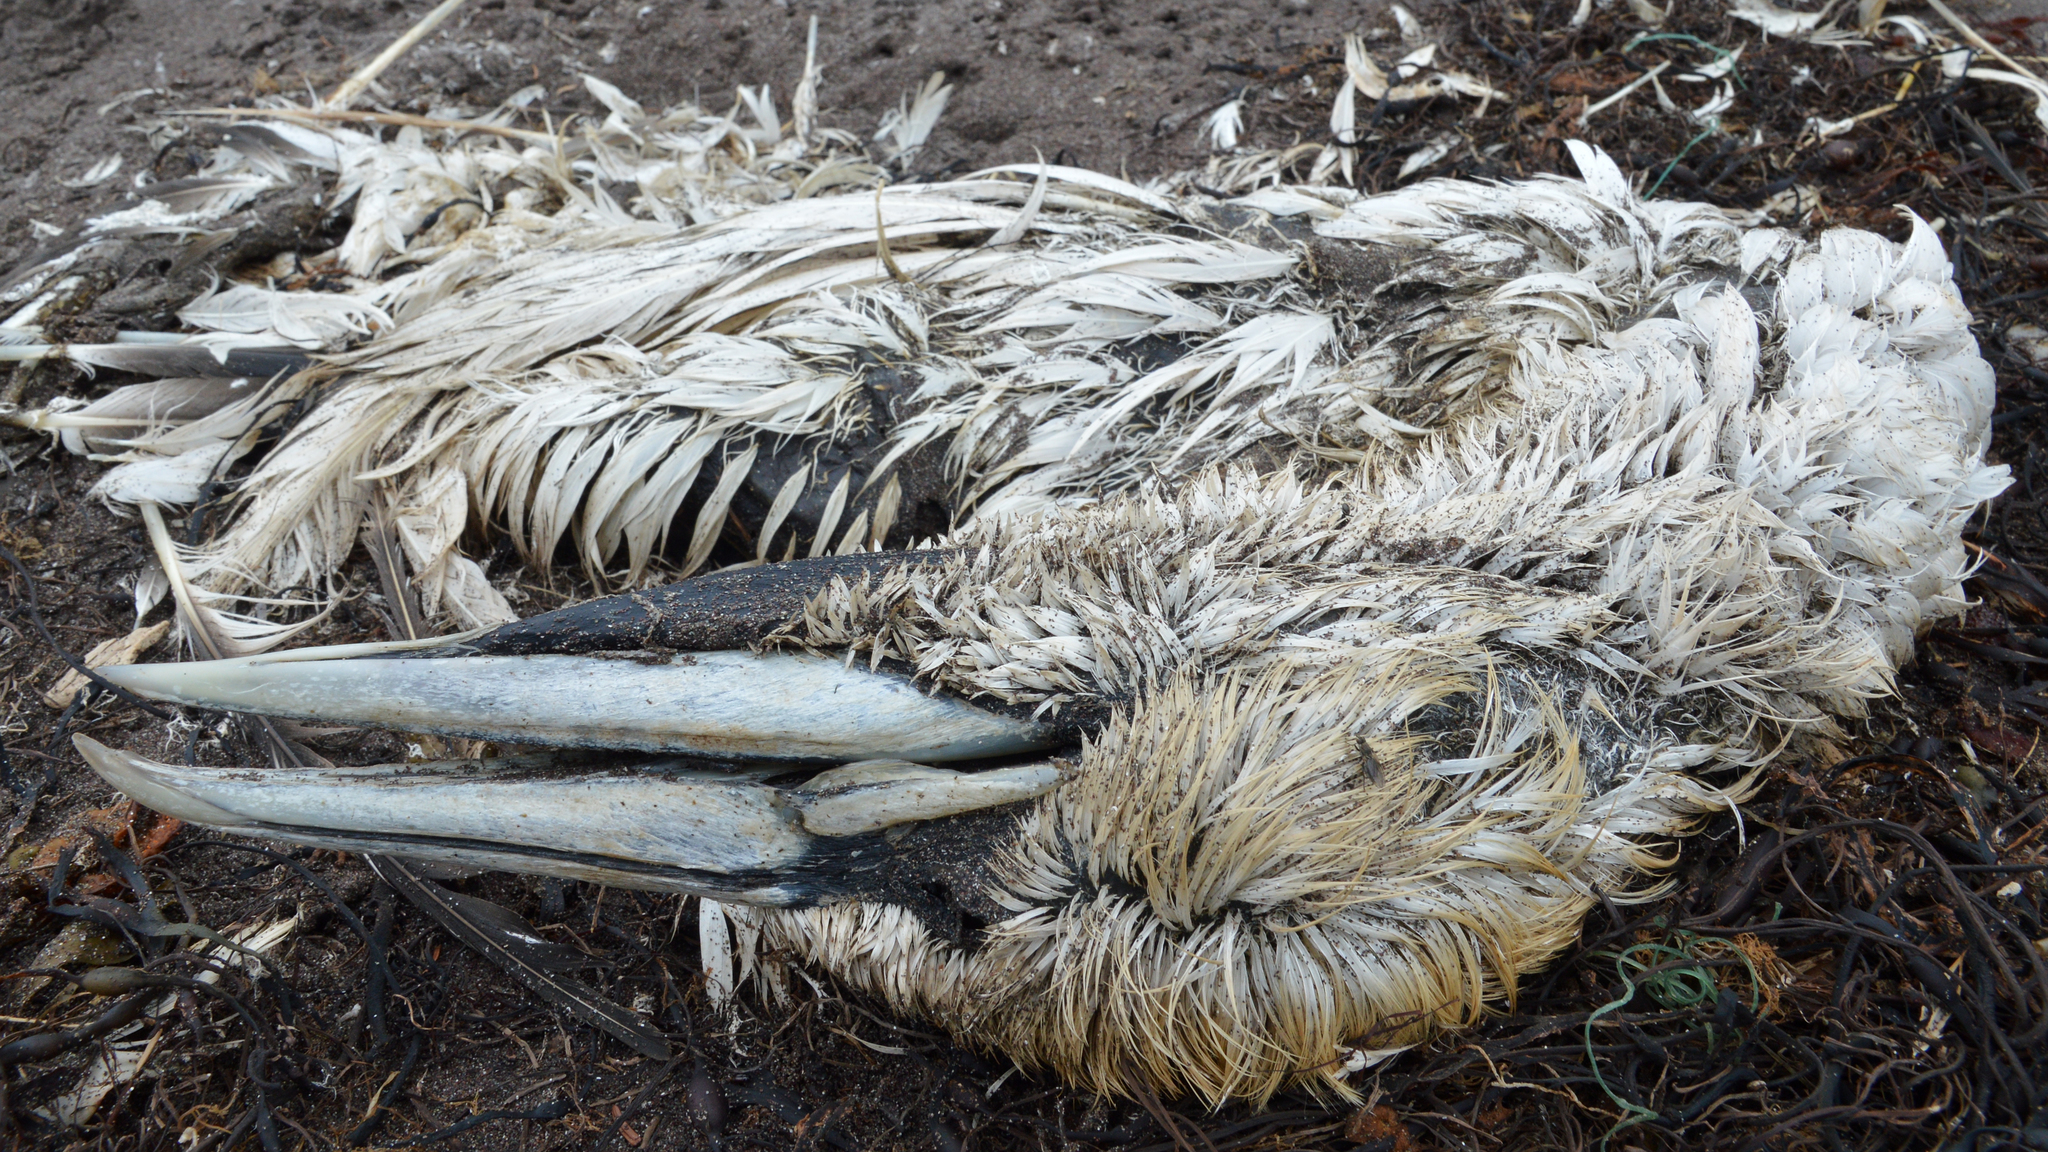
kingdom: Animalia
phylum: Chordata
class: Aves
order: Suliformes
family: Sulidae
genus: Morus
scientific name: Morus bassanus
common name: Northern gannet
